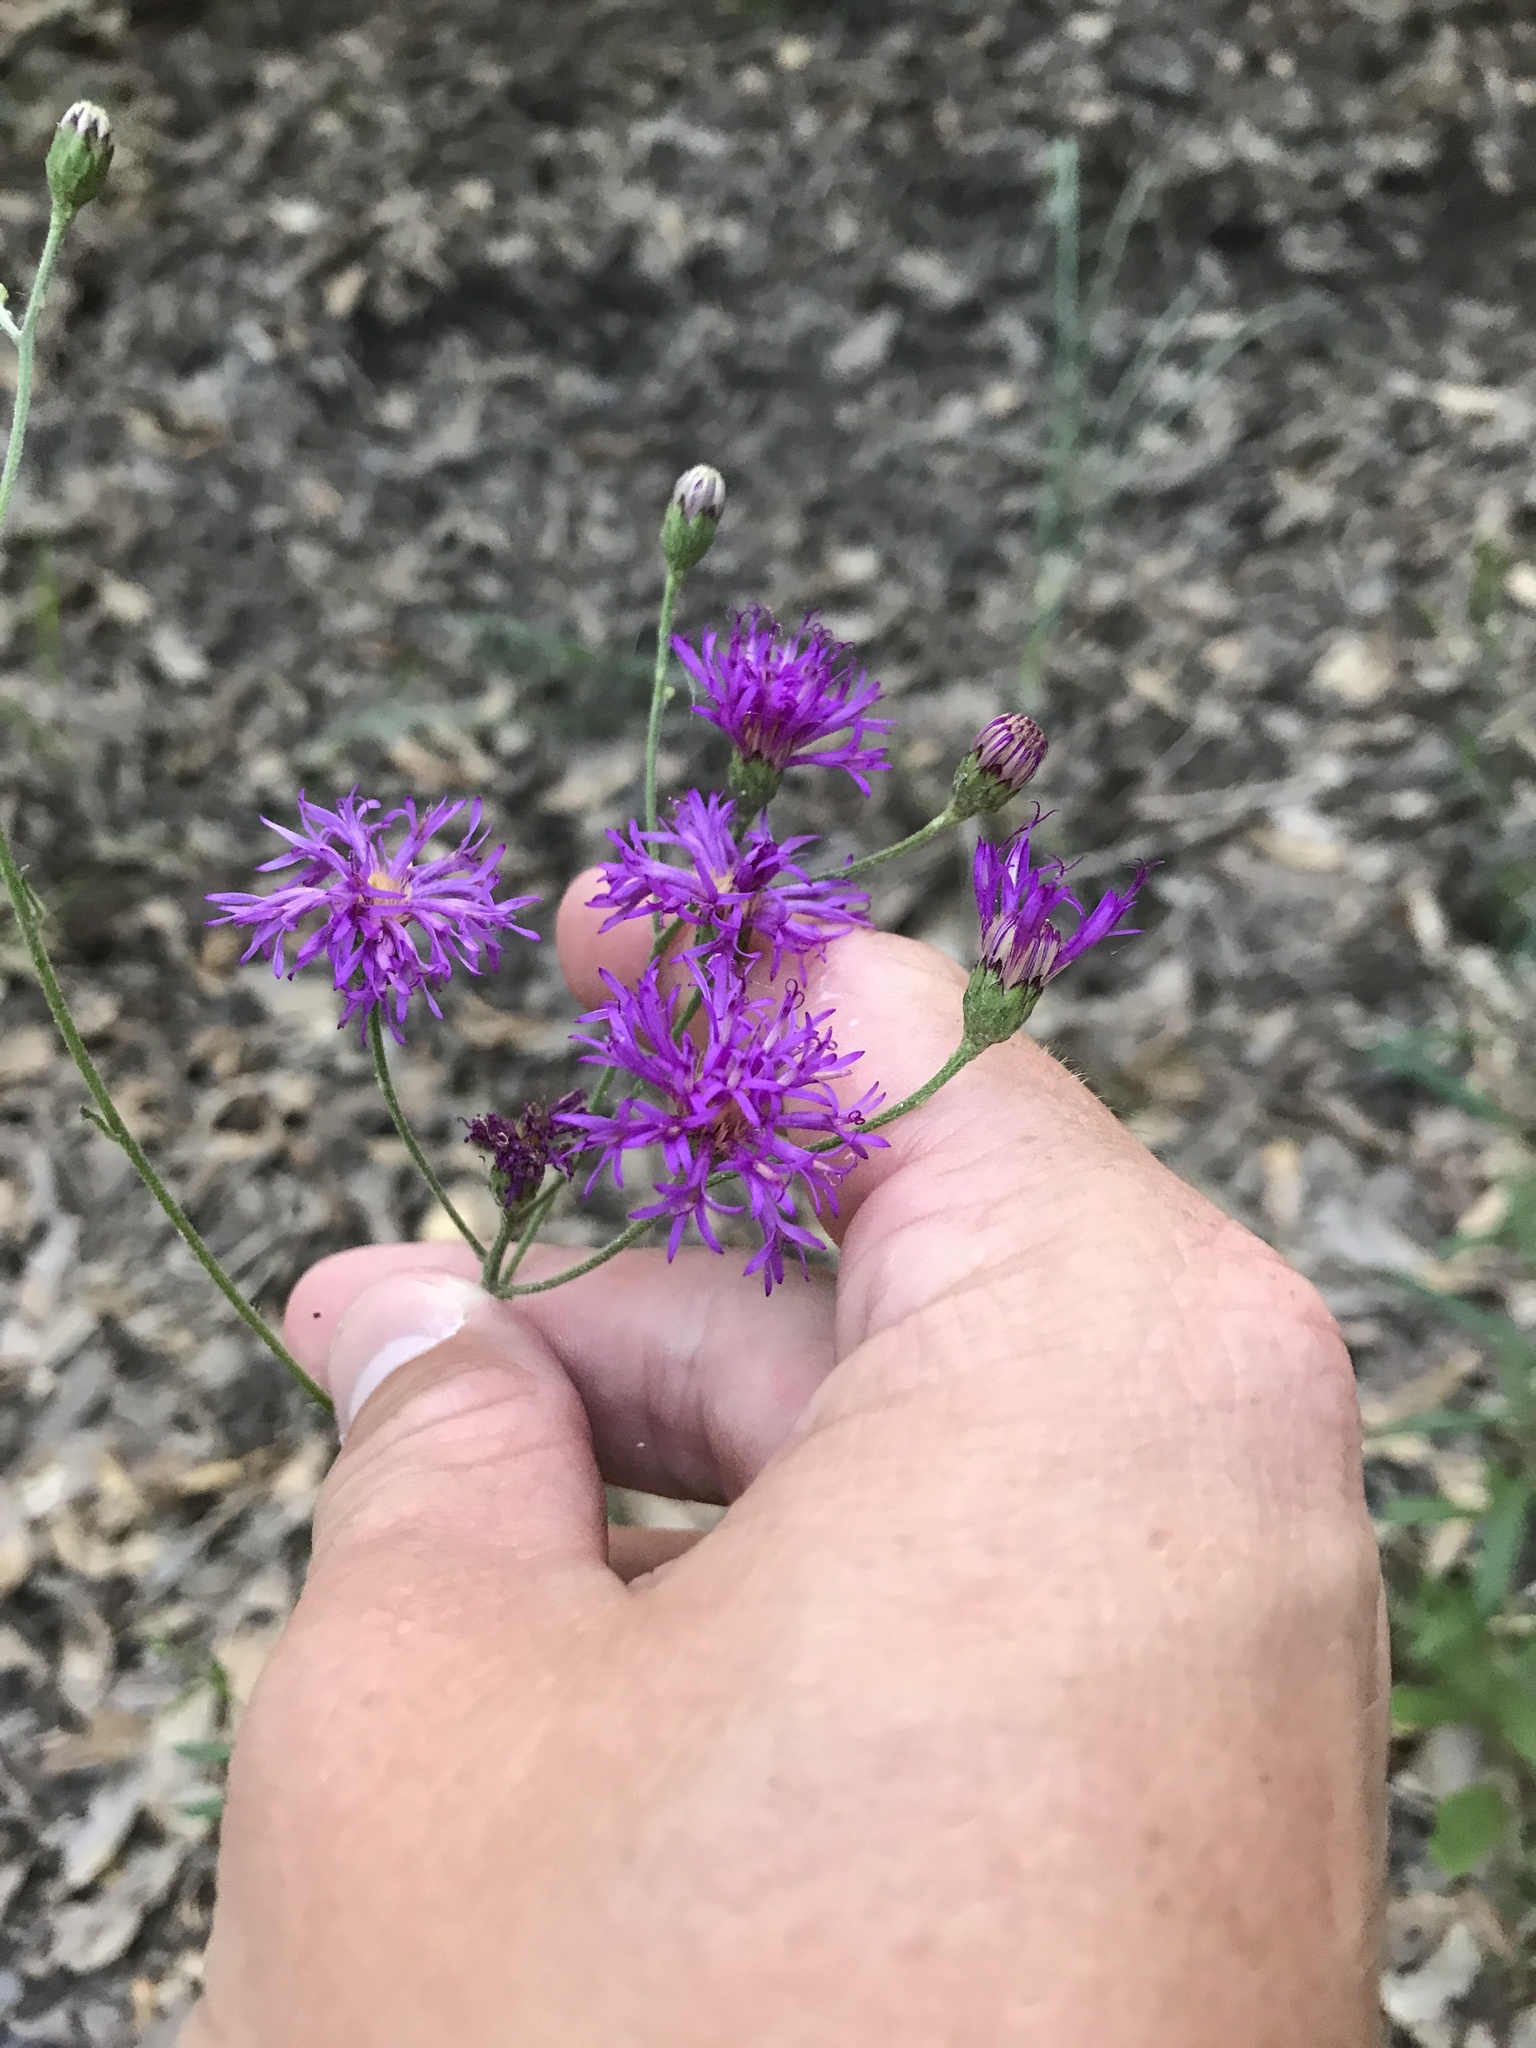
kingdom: Plantae
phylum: Tracheophyta
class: Magnoliopsida
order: Asterales
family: Asteraceae
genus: Vernonia
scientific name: Vernonia texana
